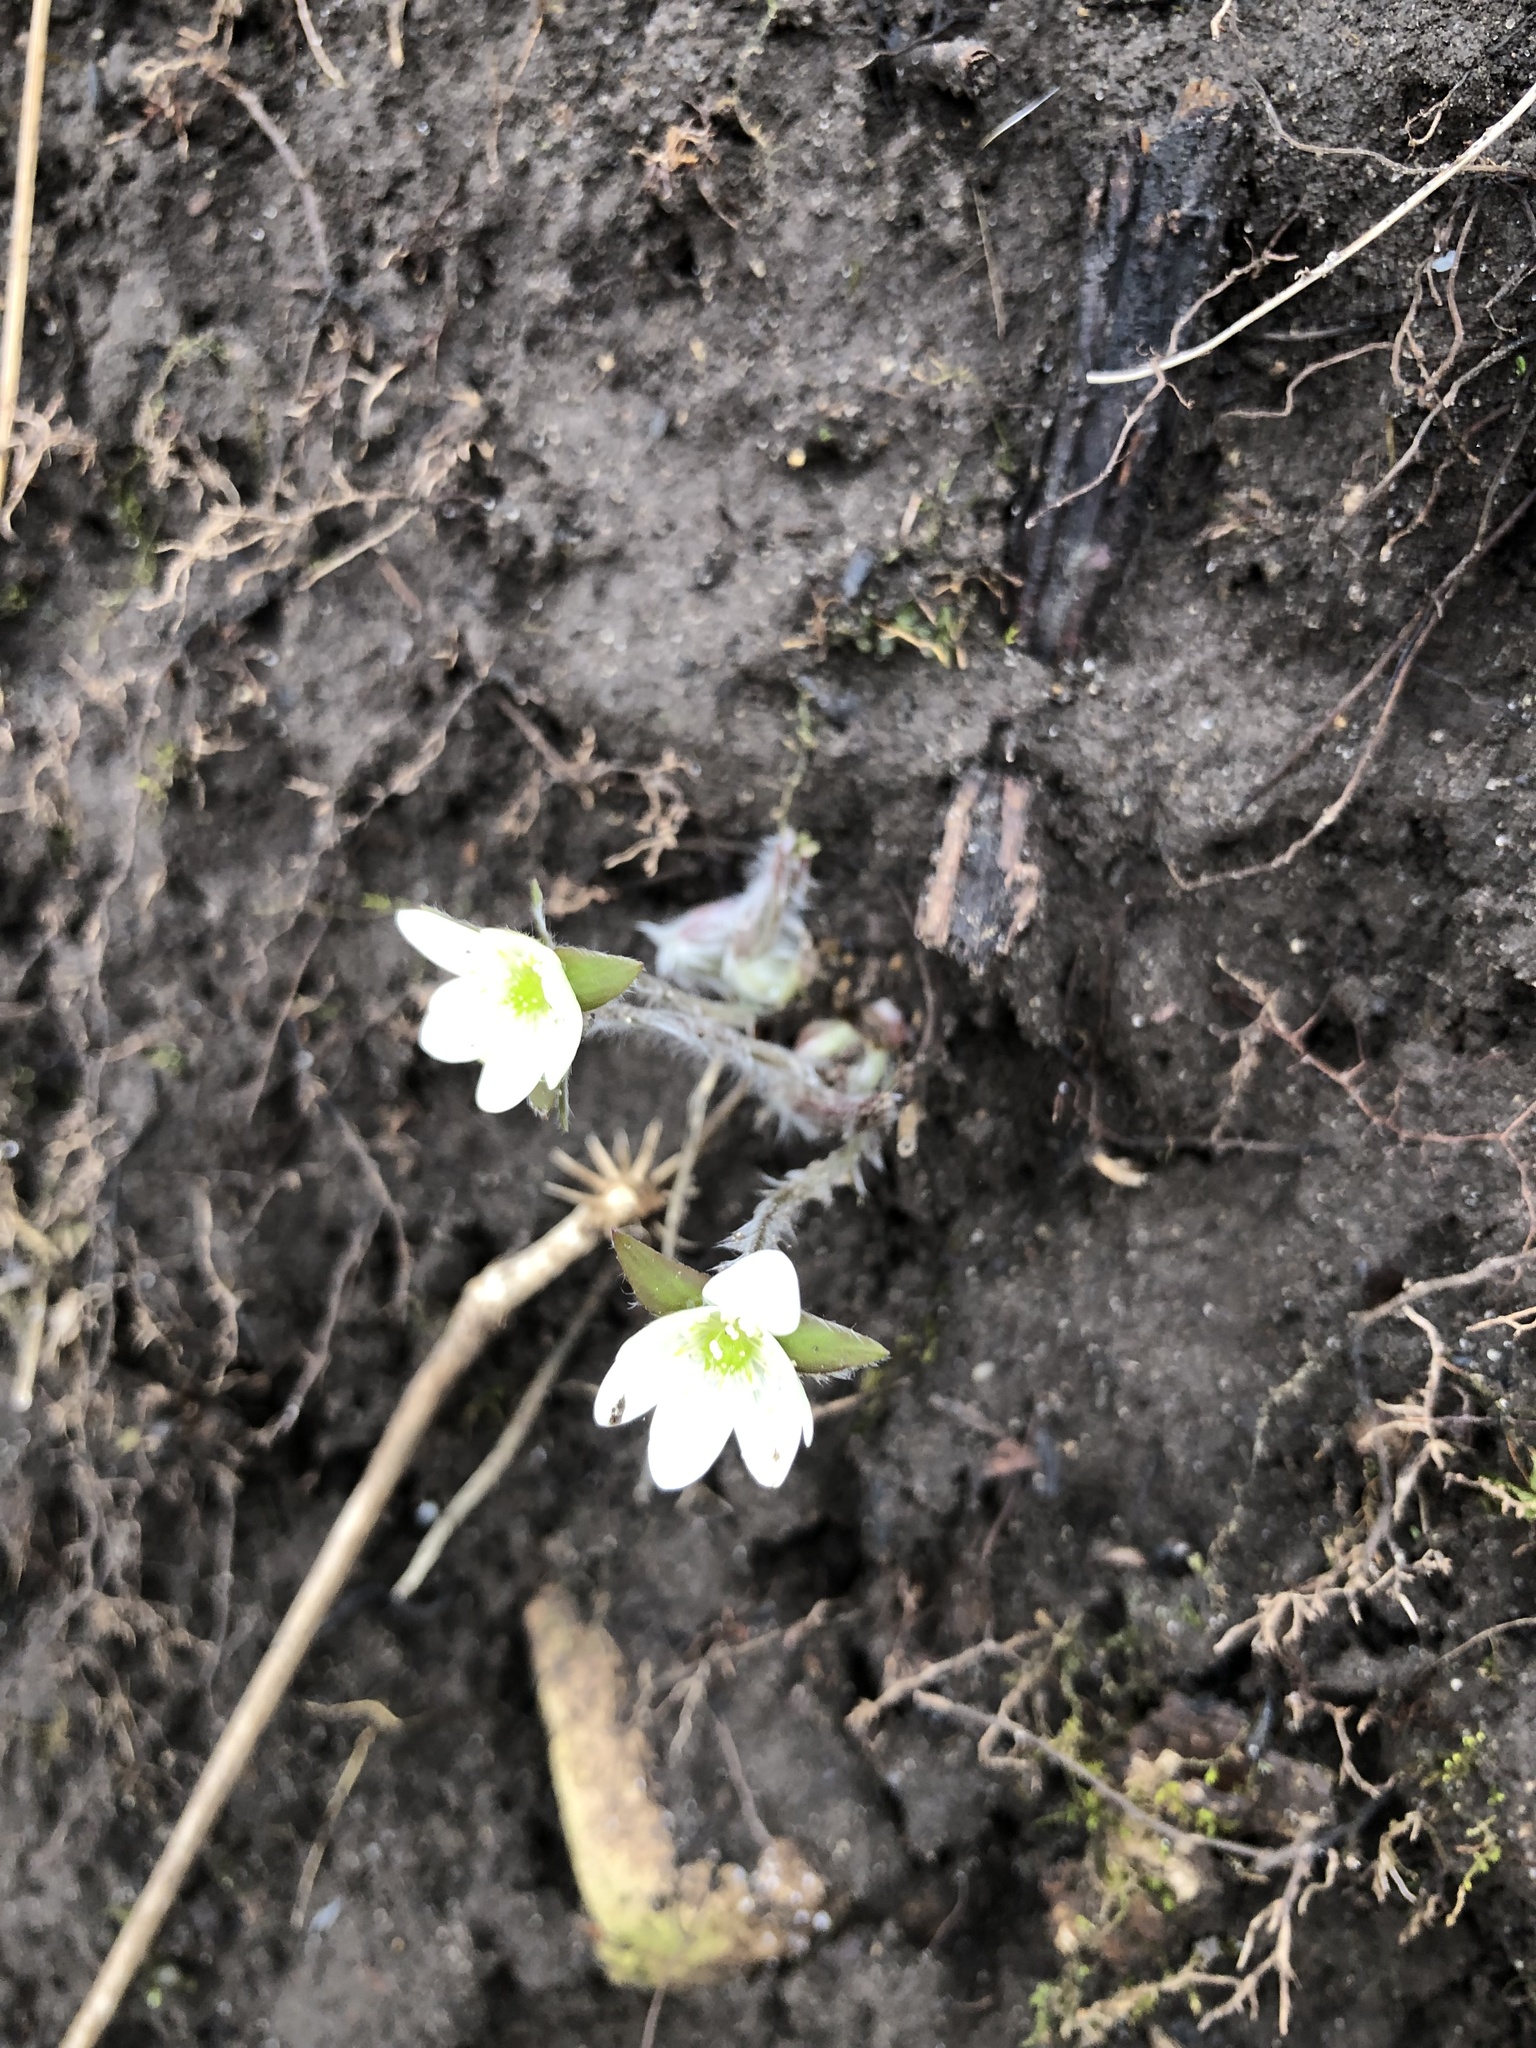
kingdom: Plantae
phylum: Tracheophyta
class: Magnoliopsida
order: Ranunculales
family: Ranunculaceae
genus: Hepatica
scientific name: Hepatica acutiloba
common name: Sharp-lobed hepatica
